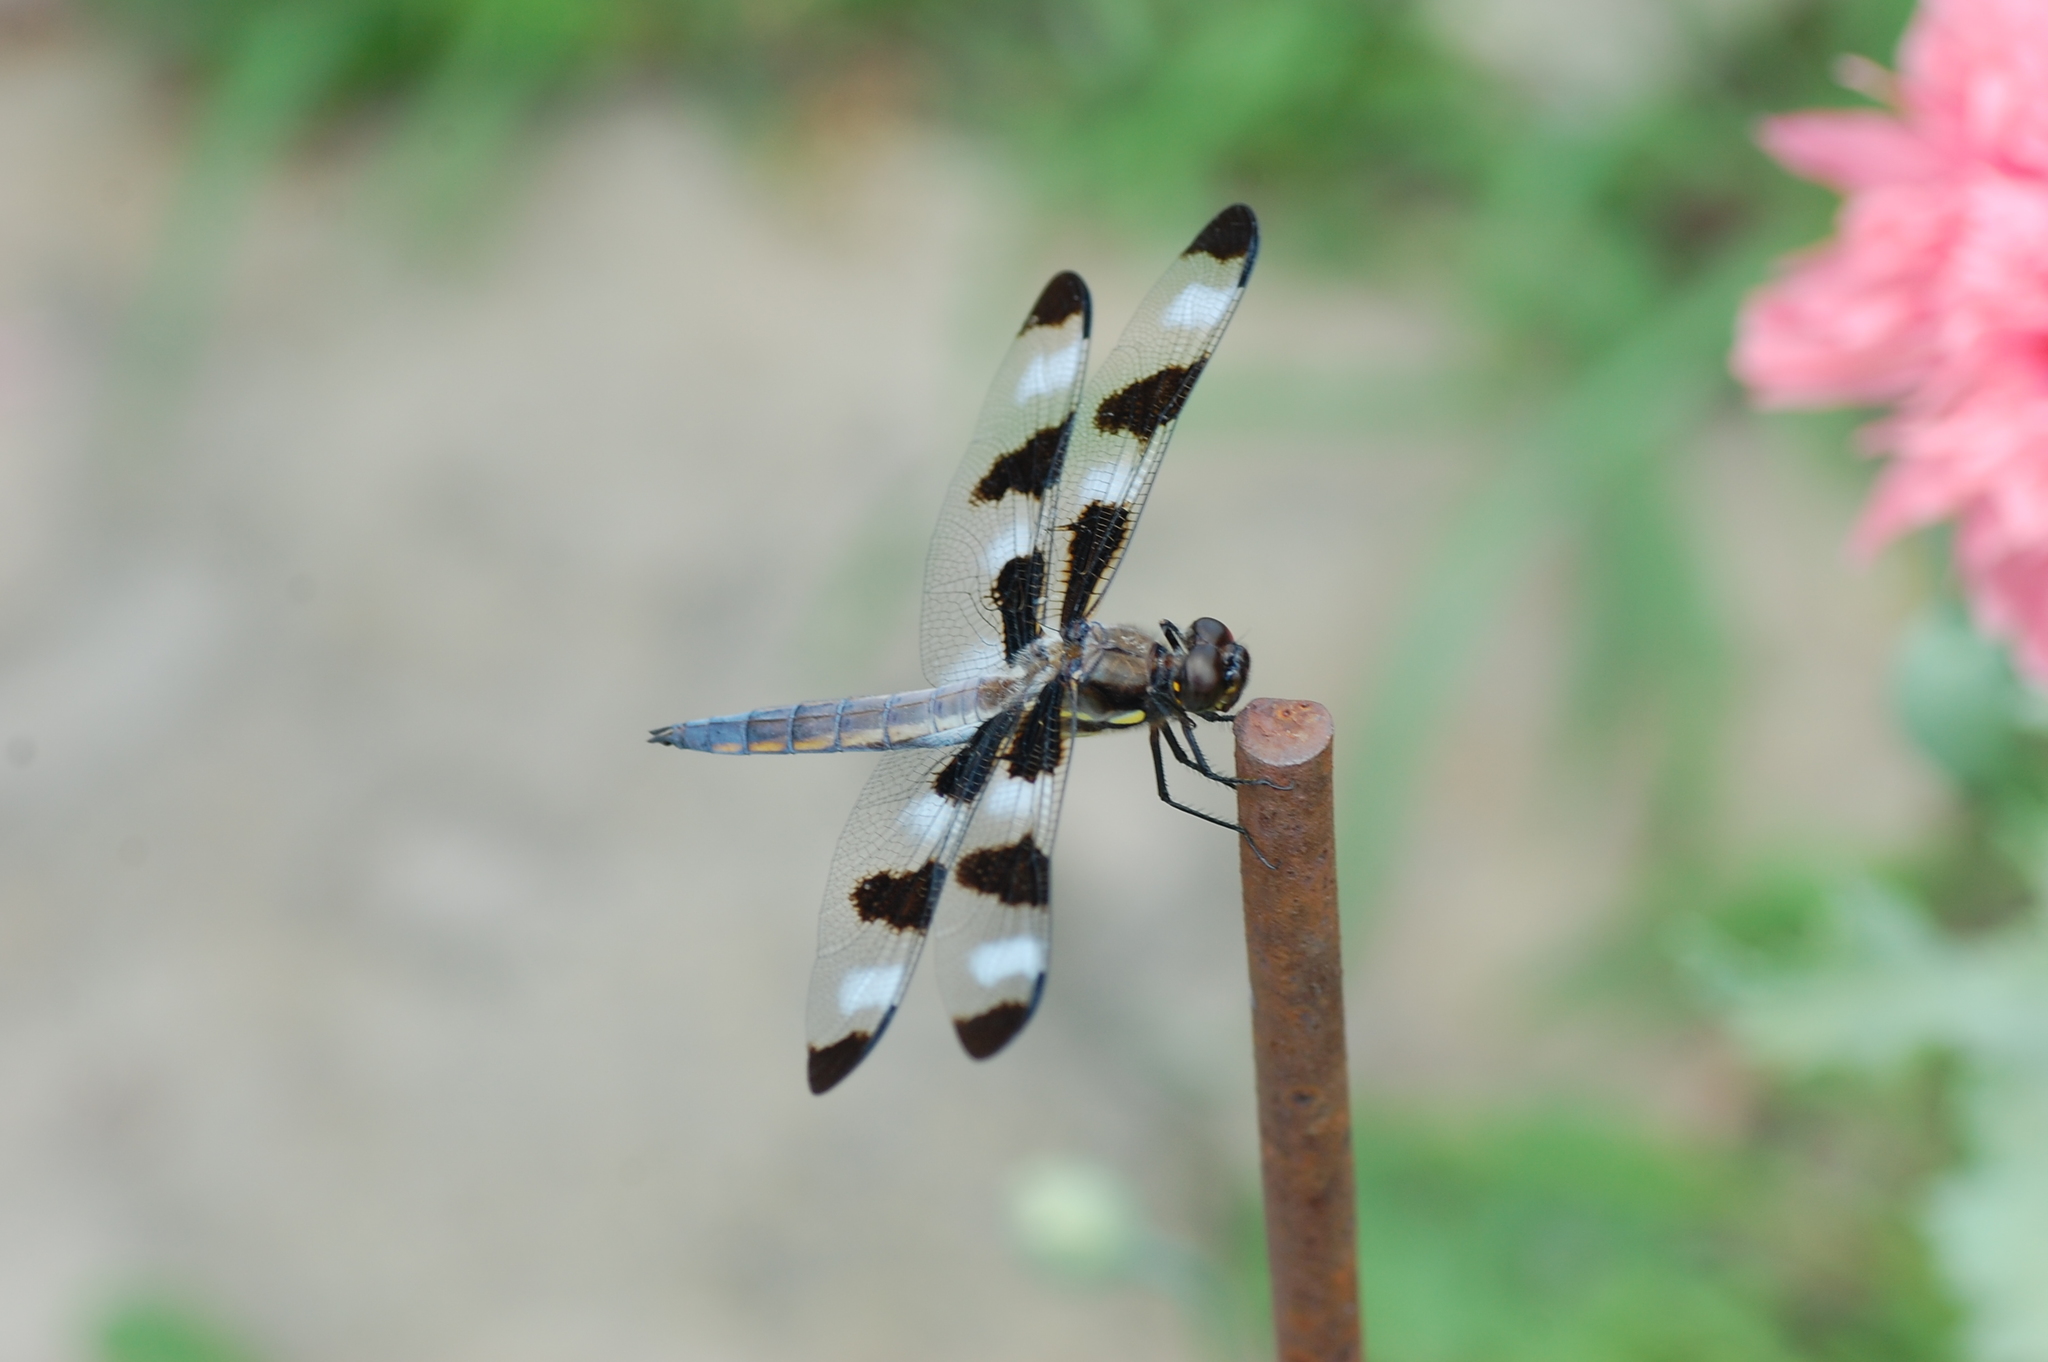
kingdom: Animalia
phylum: Arthropoda
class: Insecta
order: Odonata
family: Libellulidae
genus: Libellula
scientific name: Libellula pulchella
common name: Twelve-spotted skimmer
